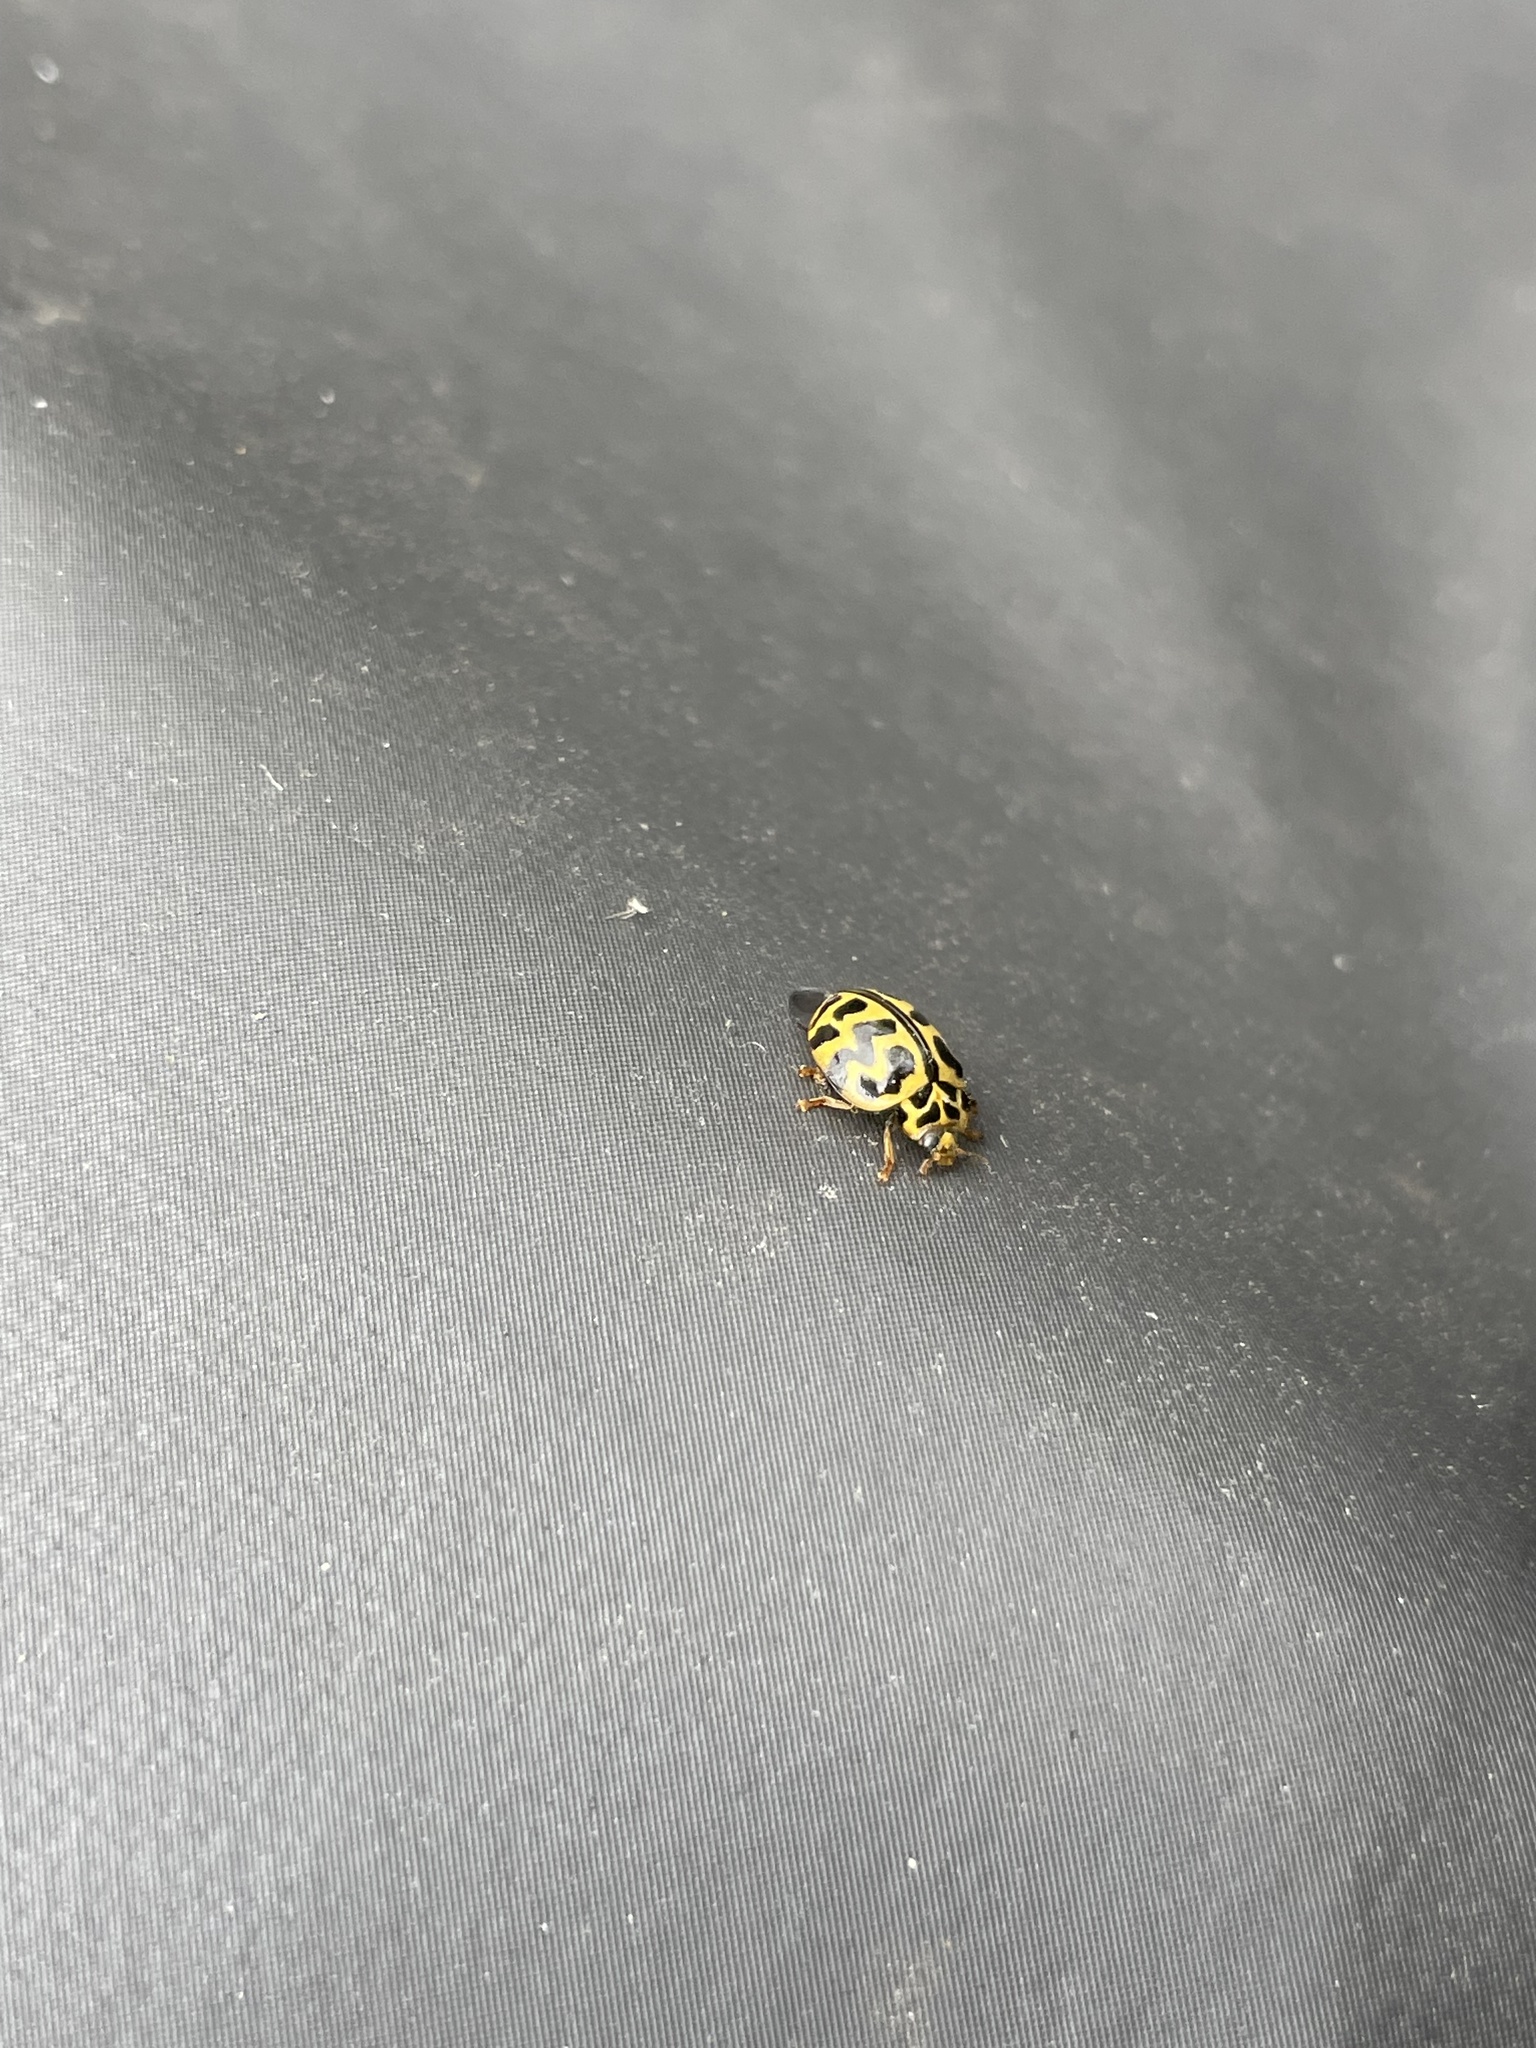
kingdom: Animalia
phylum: Arthropoda
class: Insecta
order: Coleoptera
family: Coccinellidae
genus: Cleobora
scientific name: Cleobora
